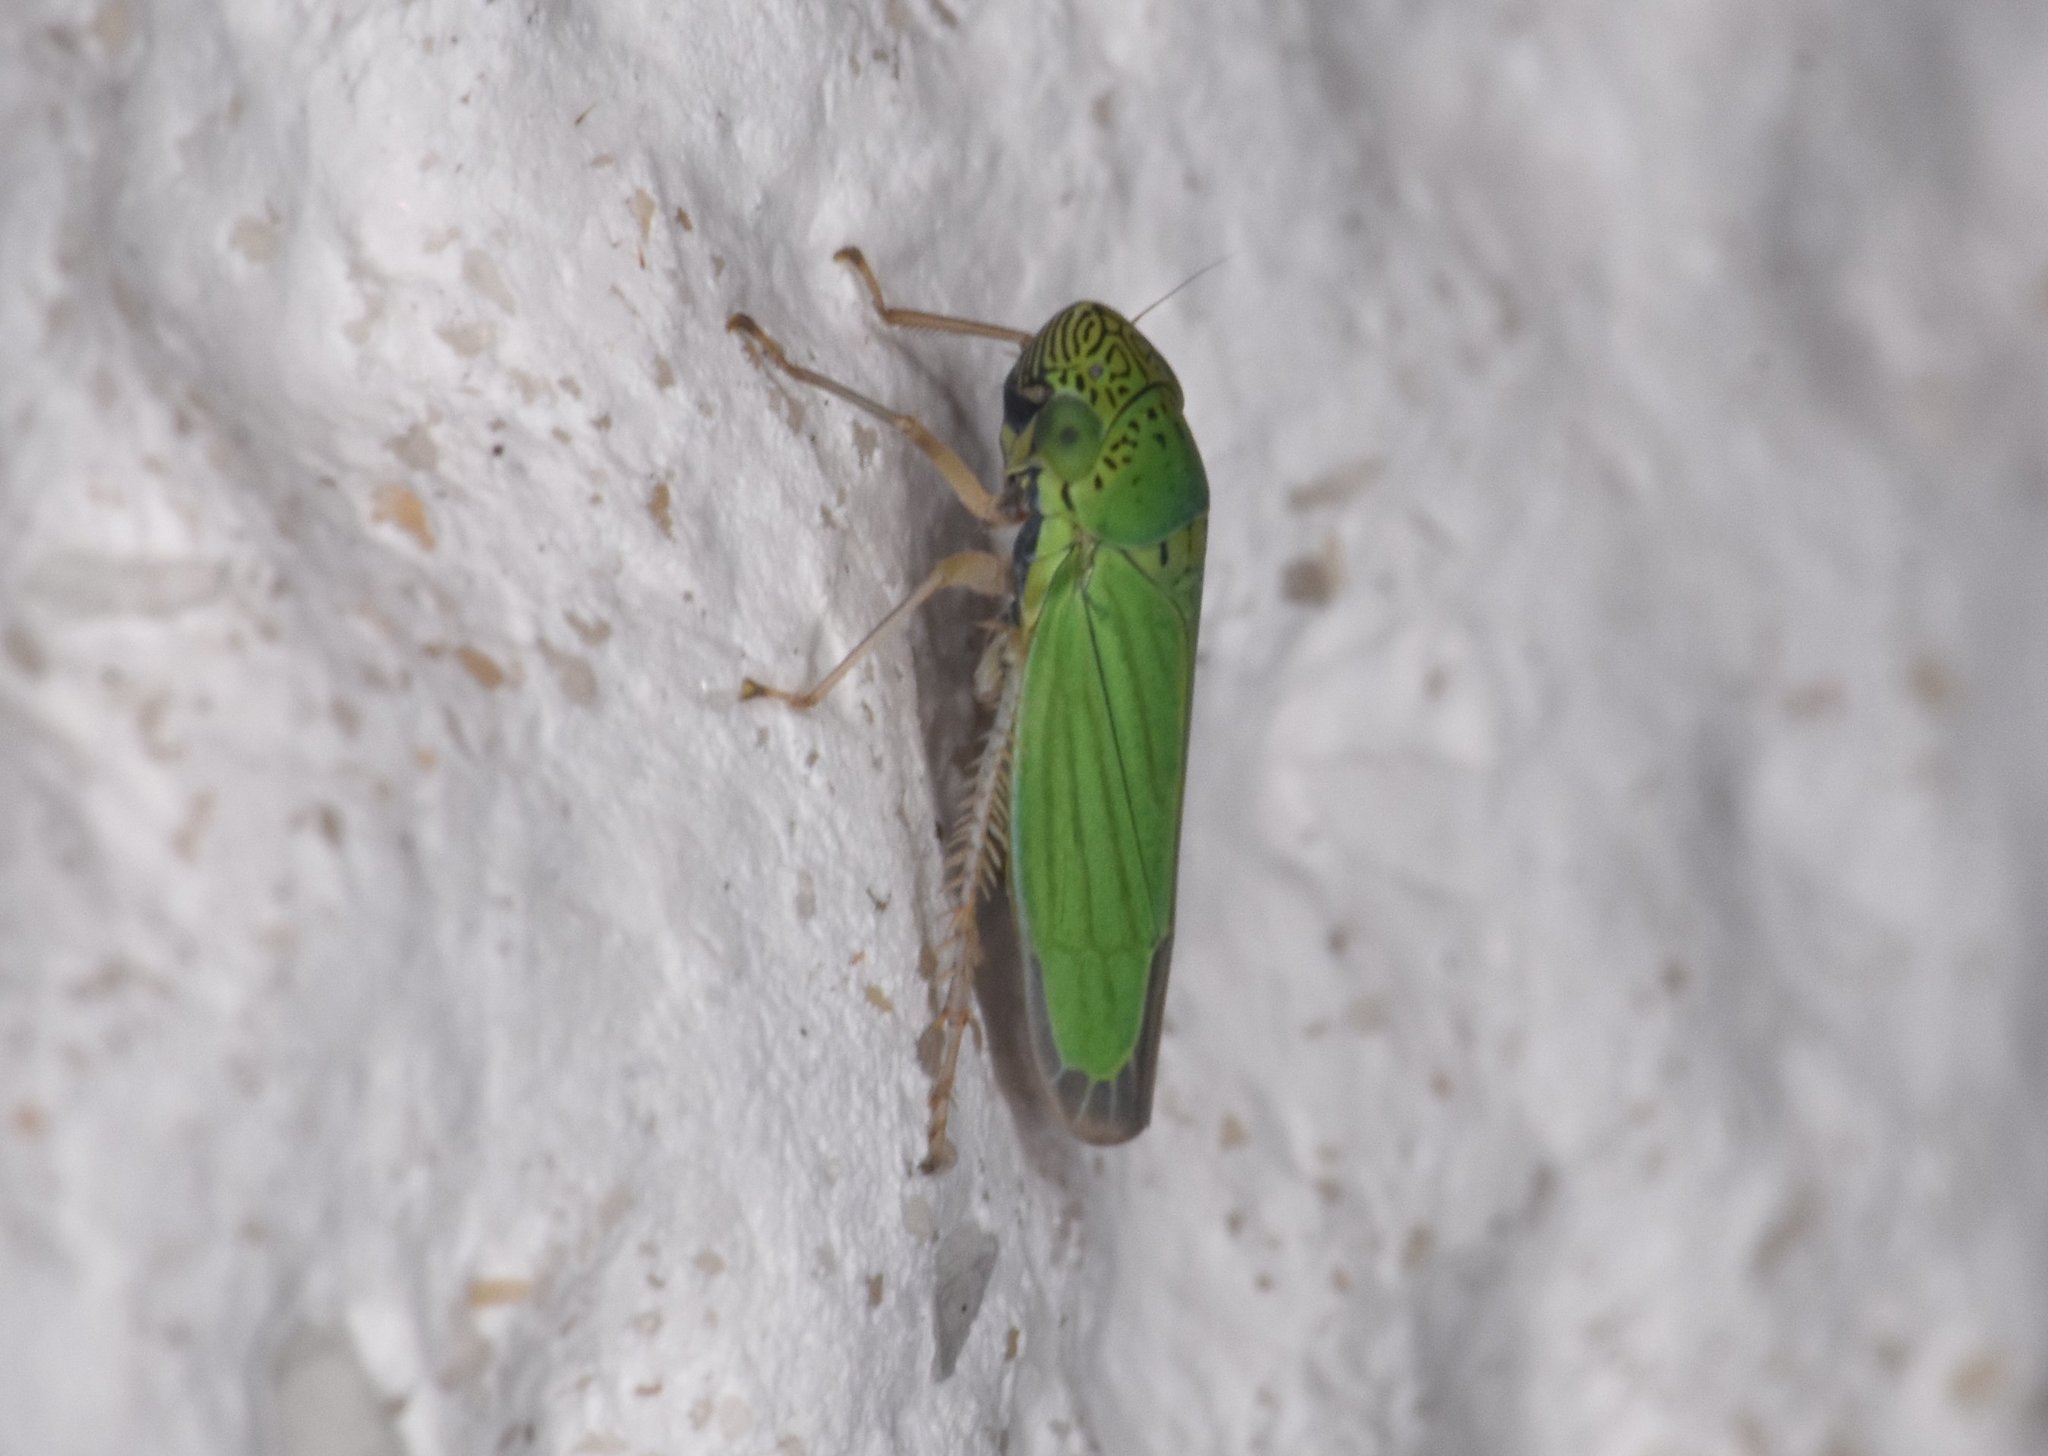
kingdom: Animalia
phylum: Arthropoda
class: Insecta
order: Hemiptera
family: Cicadellidae
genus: Hortensia
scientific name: Hortensia similis
